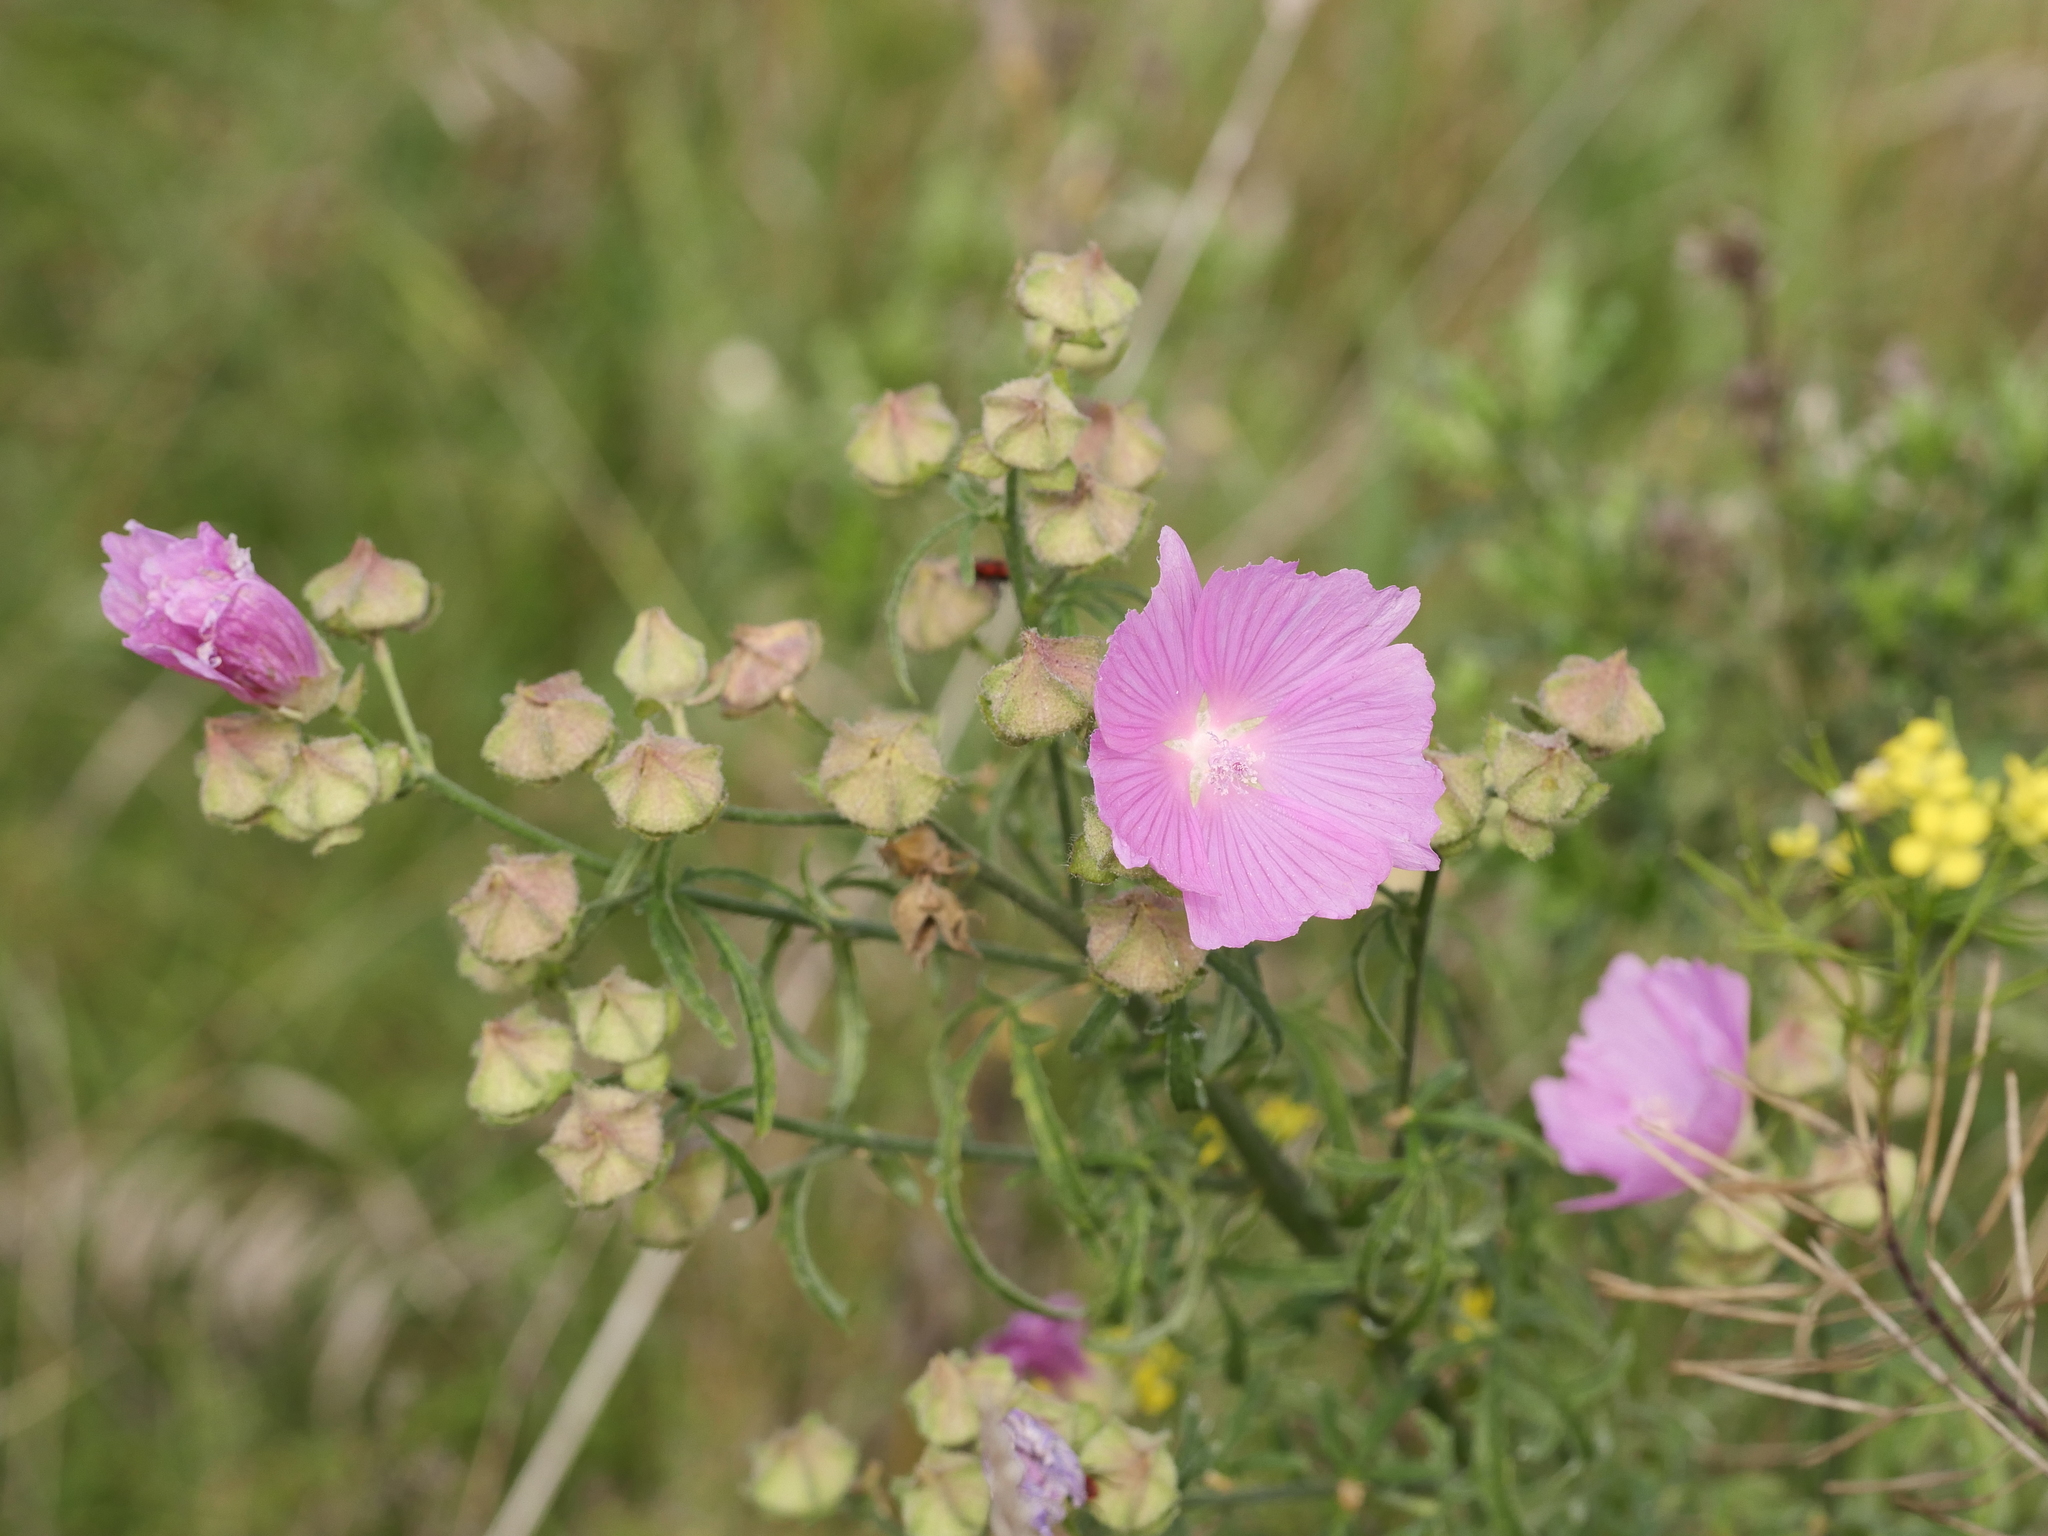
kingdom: Plantae
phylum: Tracheophyta
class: Magnoliopsida
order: Malvales
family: Malvaceae
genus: Malva
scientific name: Malva alcea
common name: Greater musk-mallow
